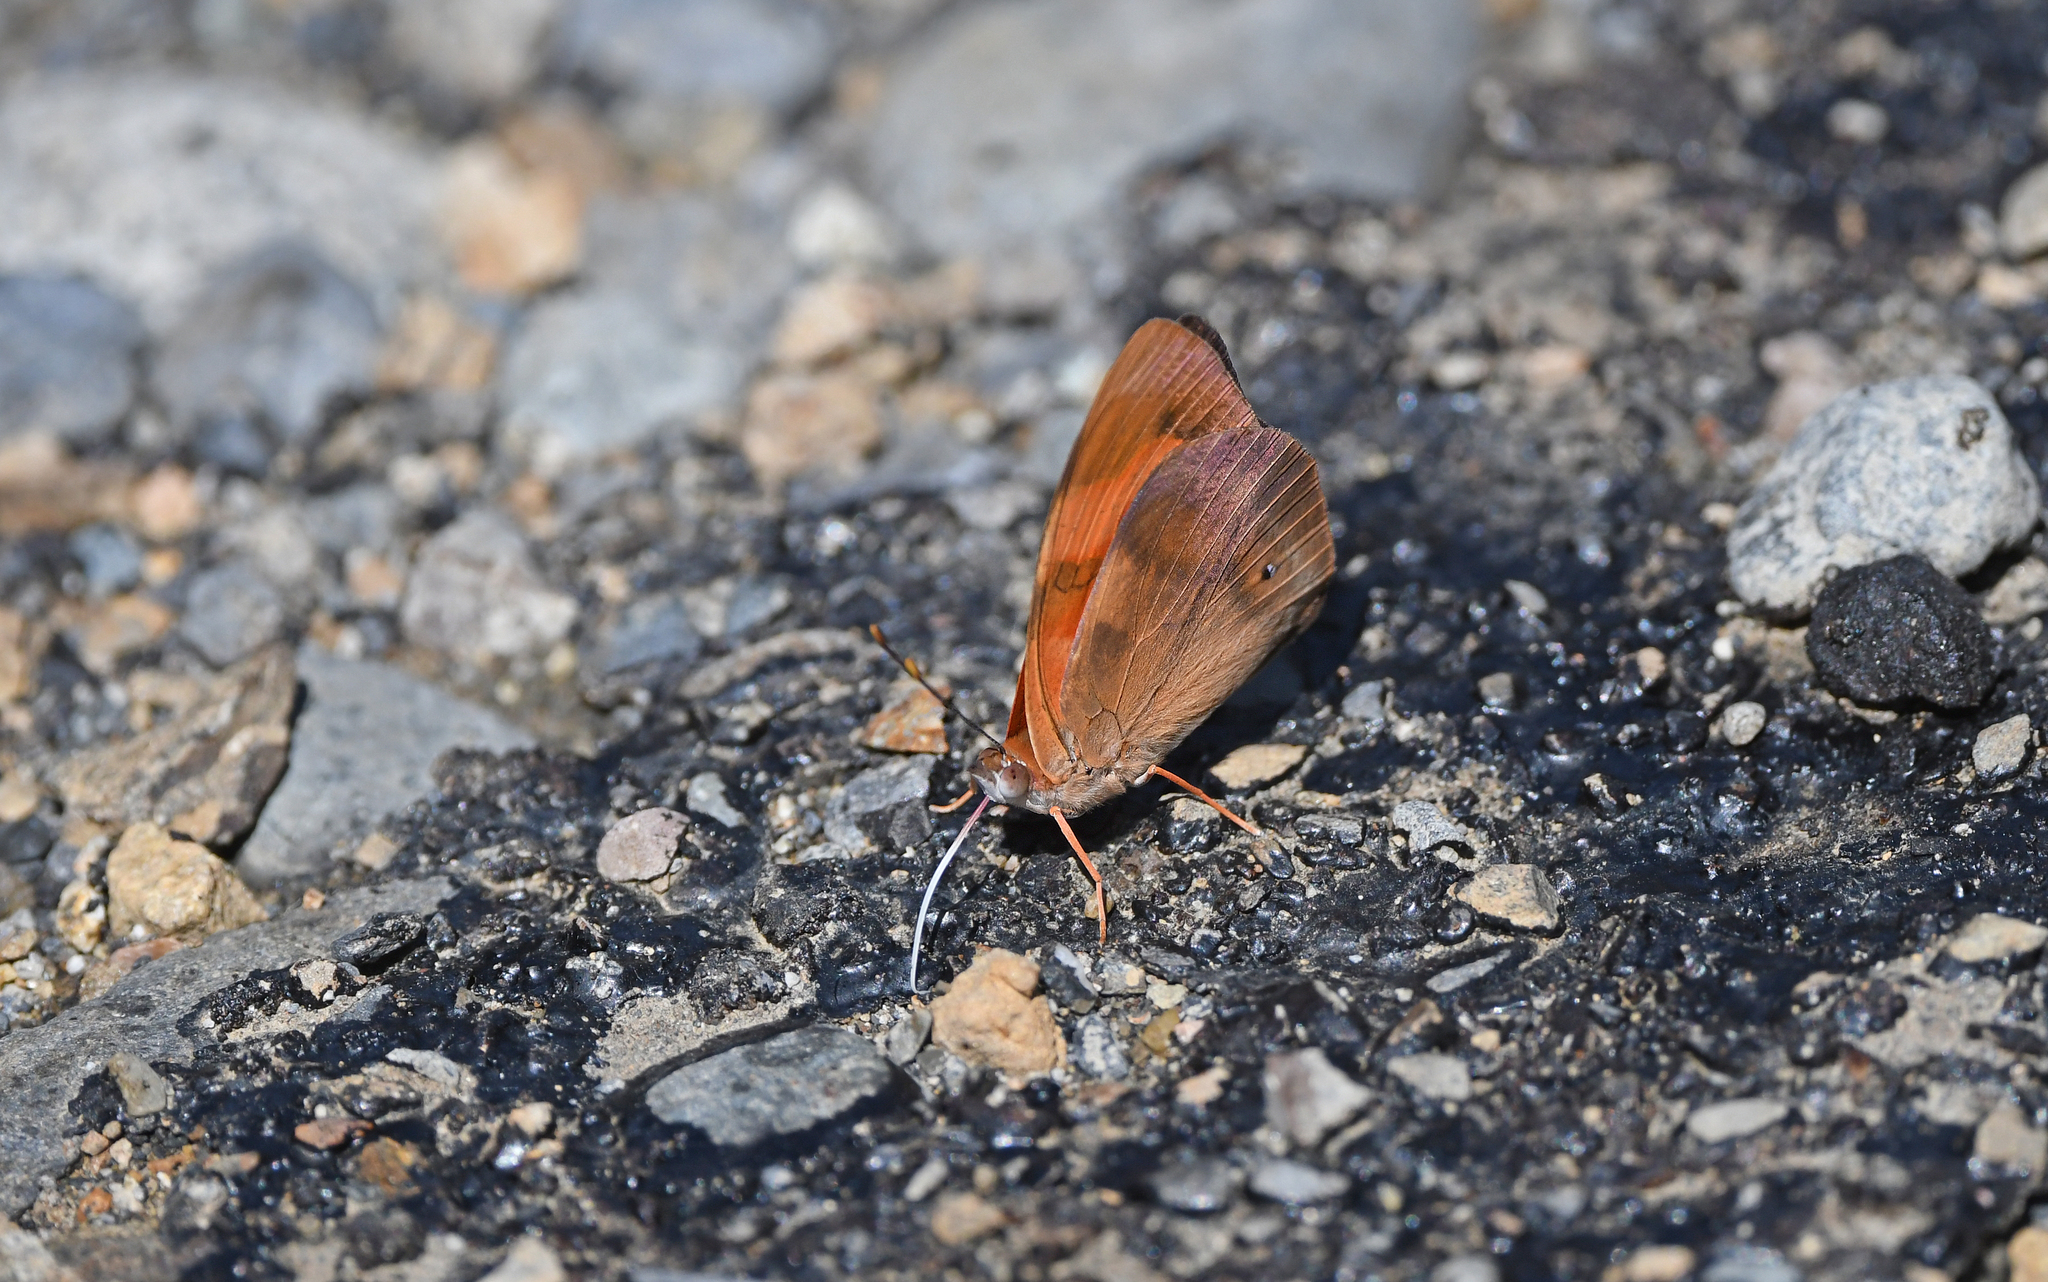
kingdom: Animalia
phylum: Arthropoda
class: Insecta
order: Lepidoptera
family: Nymphalidae
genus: Temenis
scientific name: Temenis pulchra
